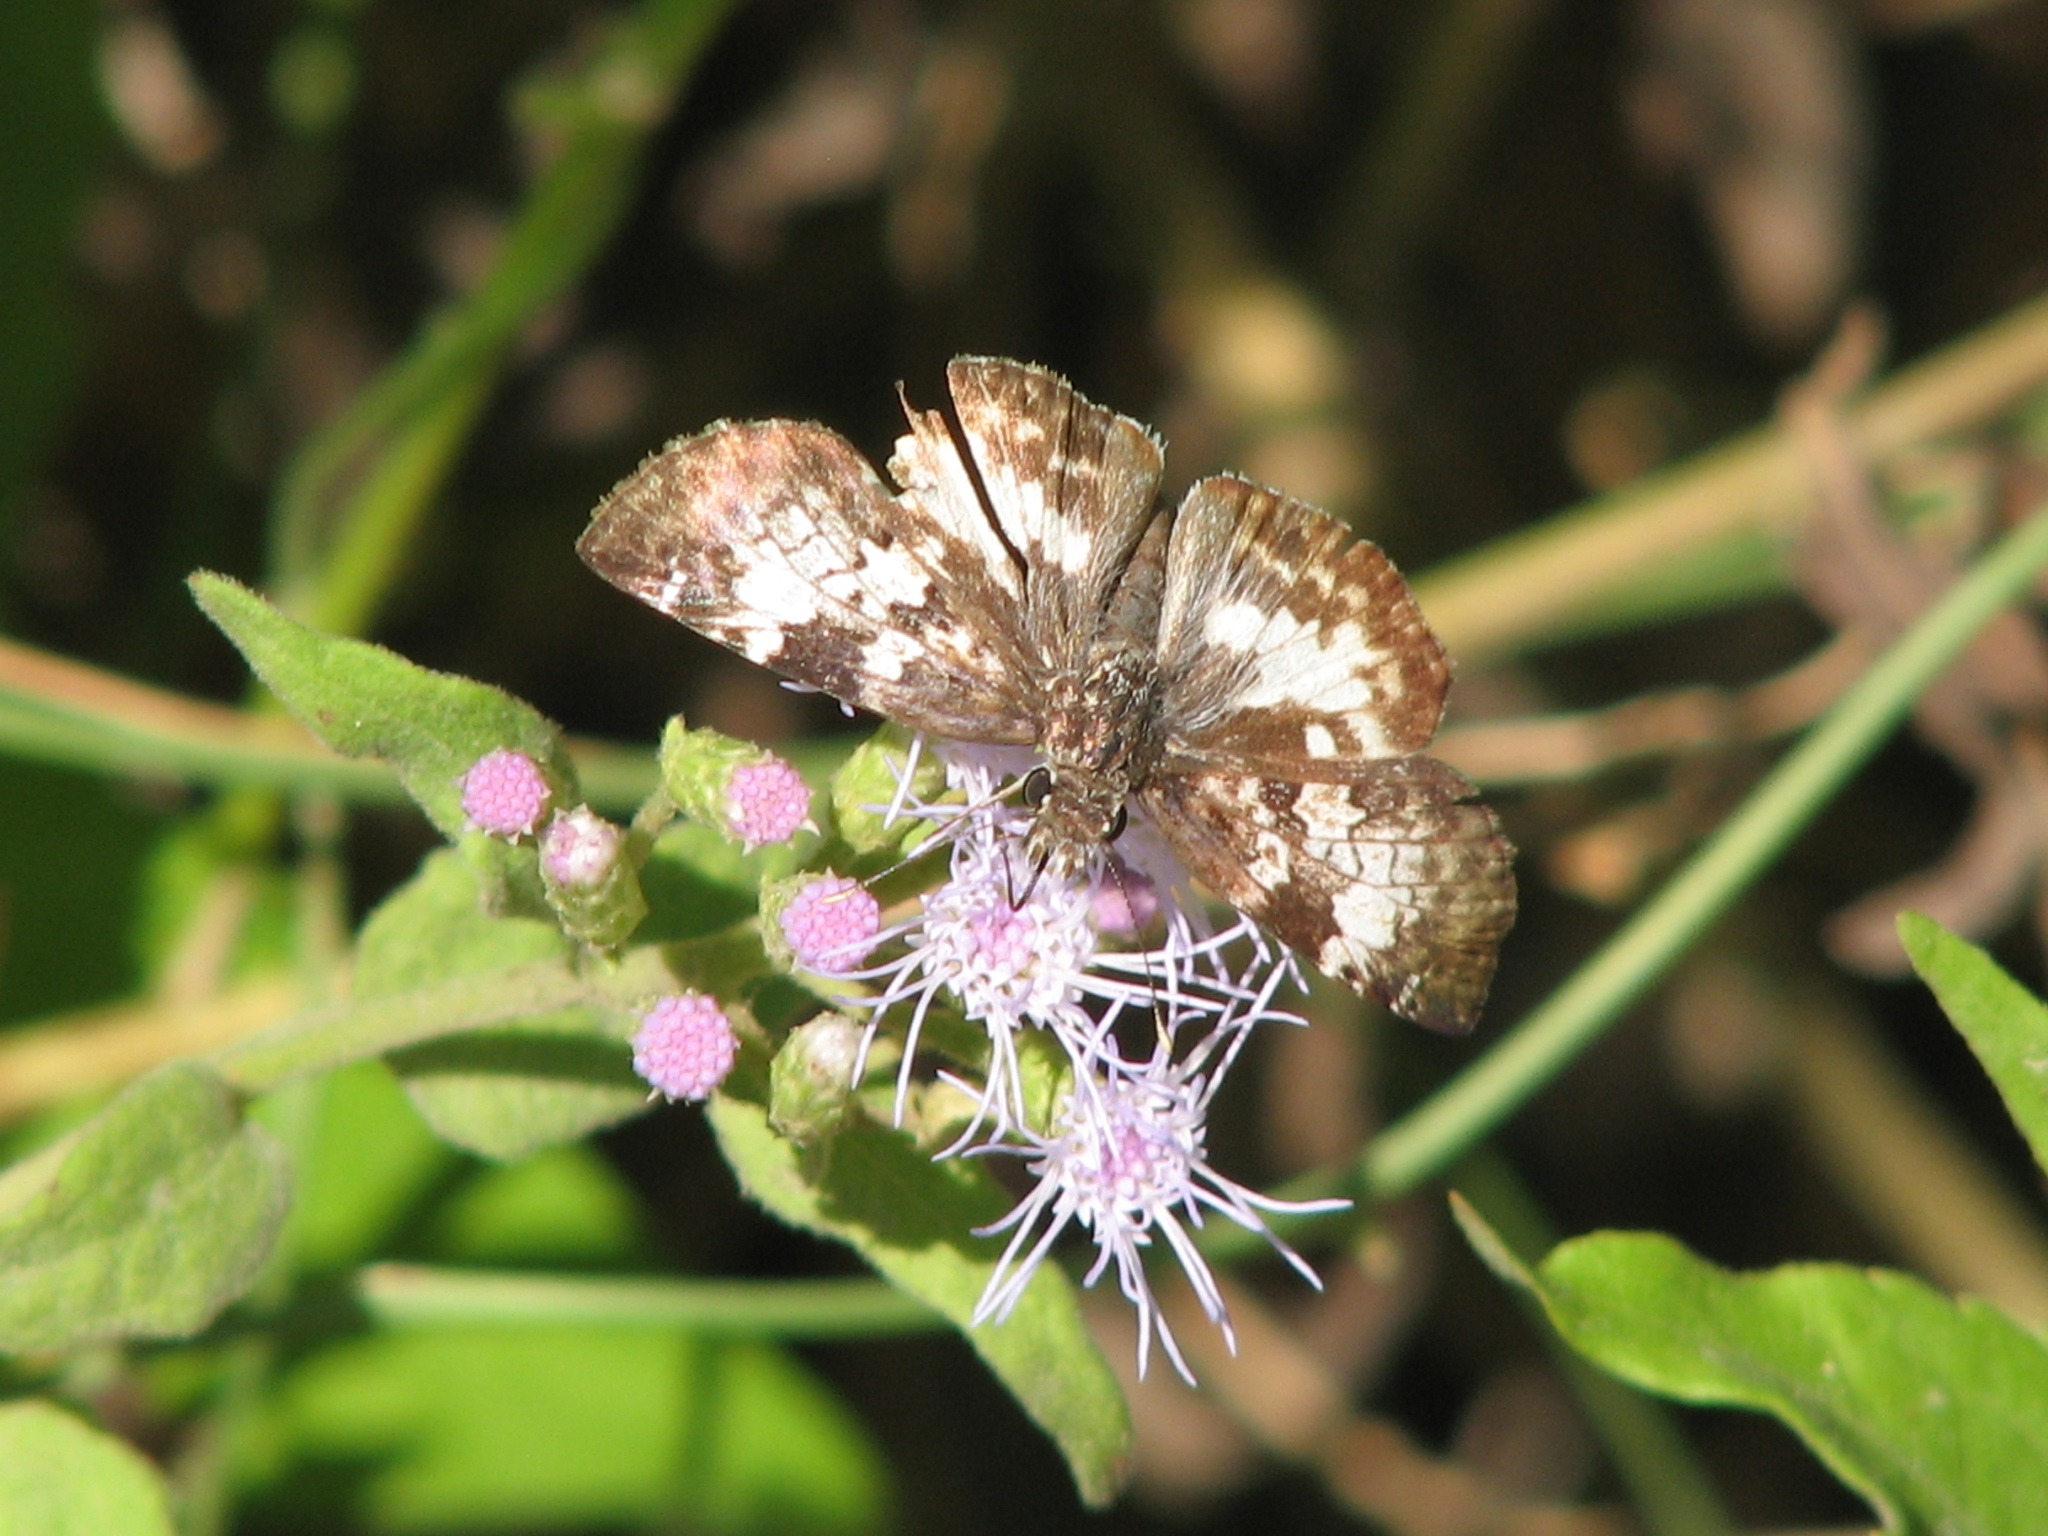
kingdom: Animalia
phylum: Arthropoda
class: Insecta
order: Lepidoptera
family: Hesperiidae
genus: Chiothion
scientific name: Chiothion georgina
